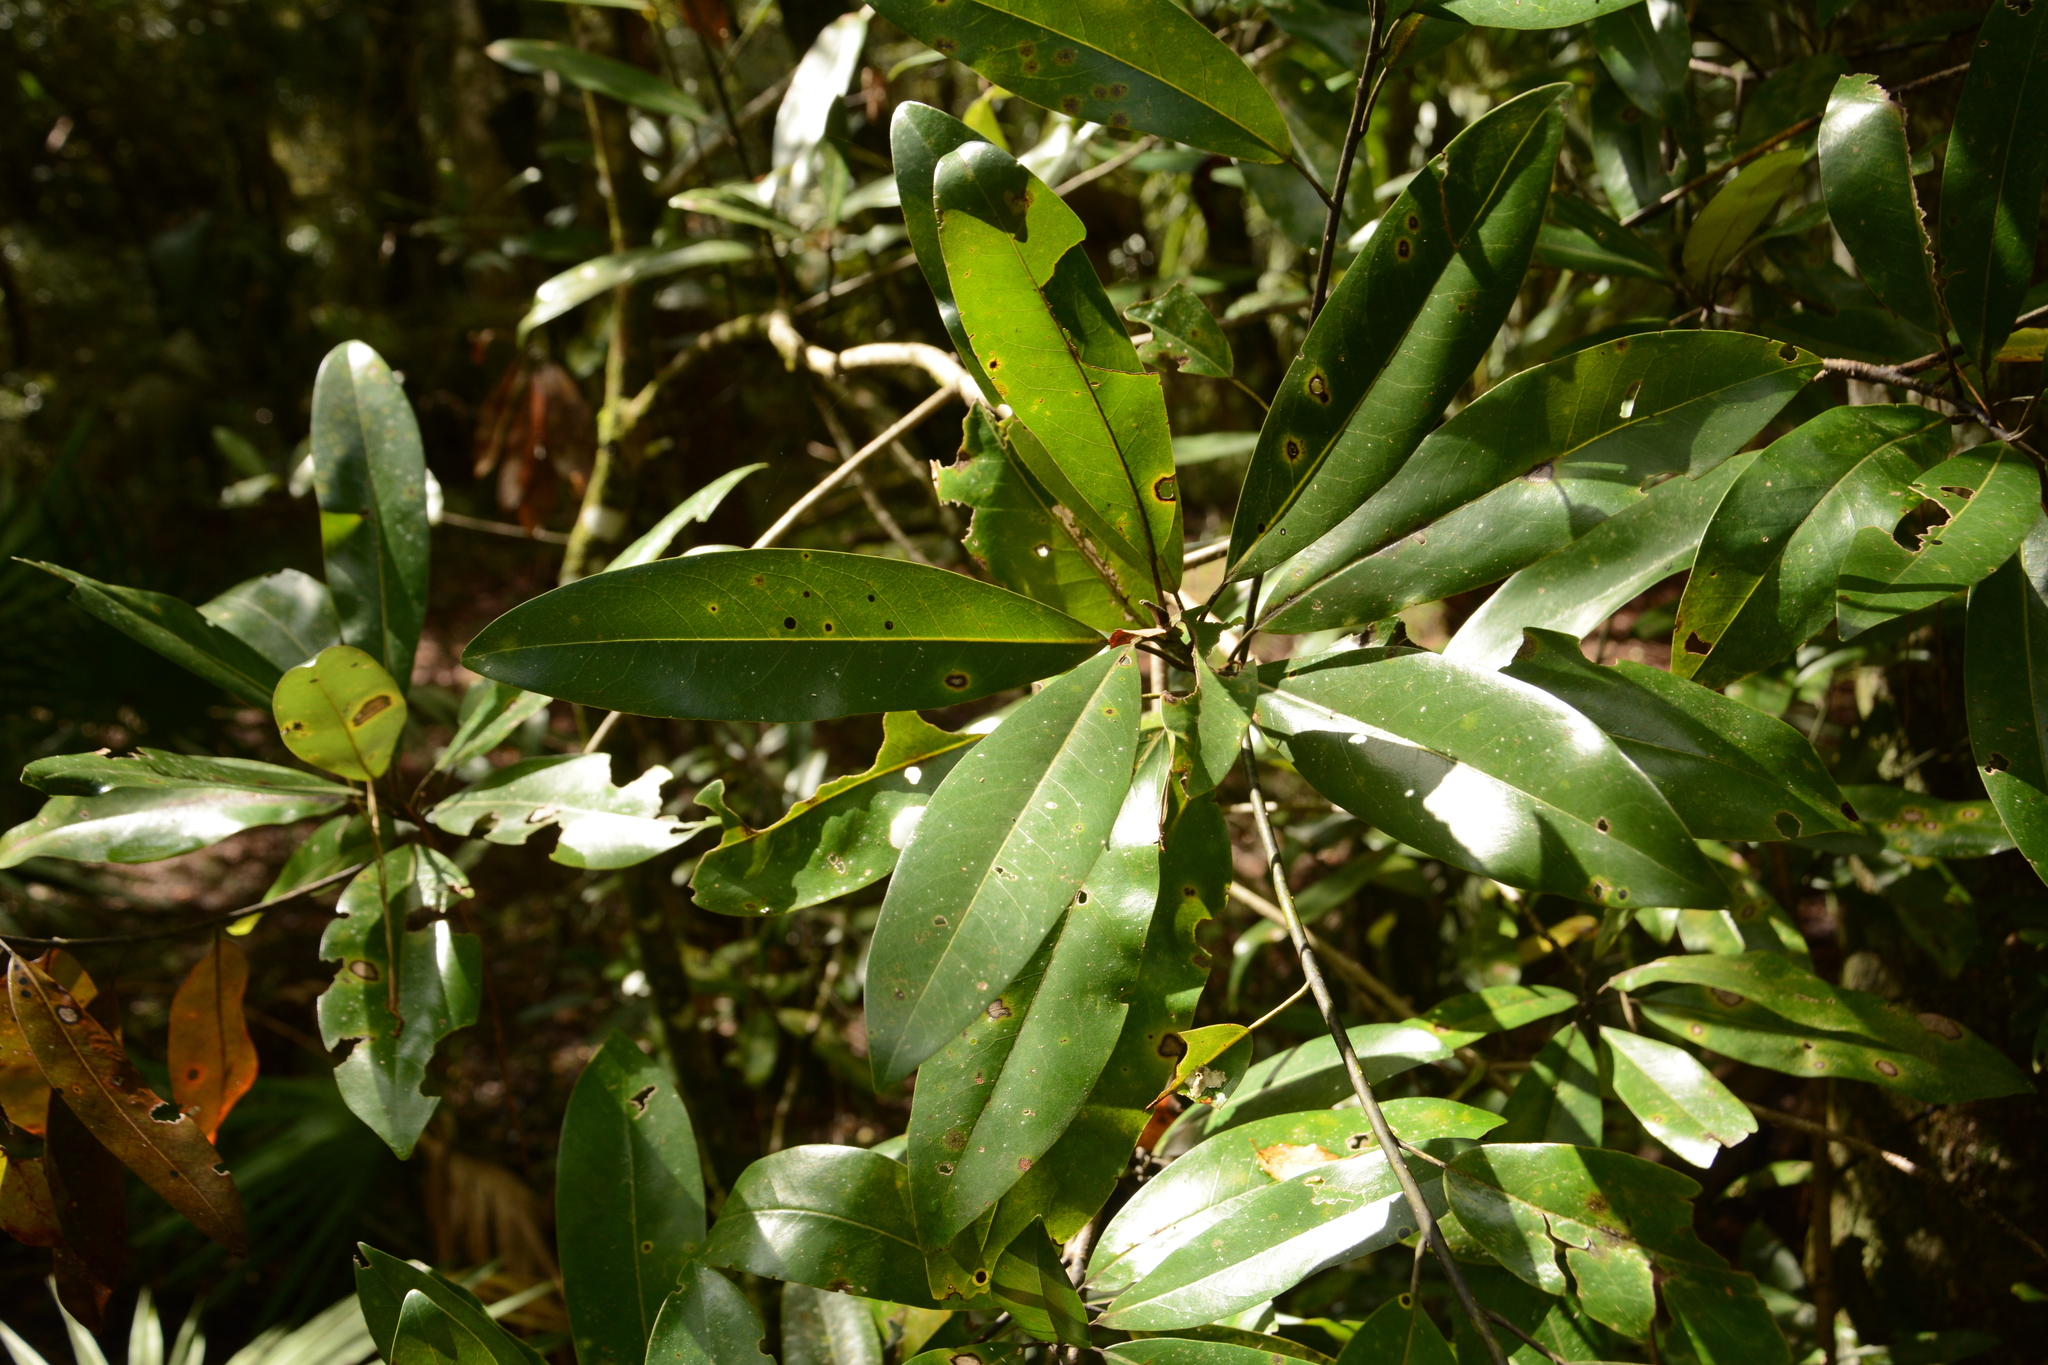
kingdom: Plantae
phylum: Tracheophyta
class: Magnoliopsida
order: Magnoliales
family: Magnoliaceae
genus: Magnolia
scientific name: Magnolia virginiana
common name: Swamp bay
